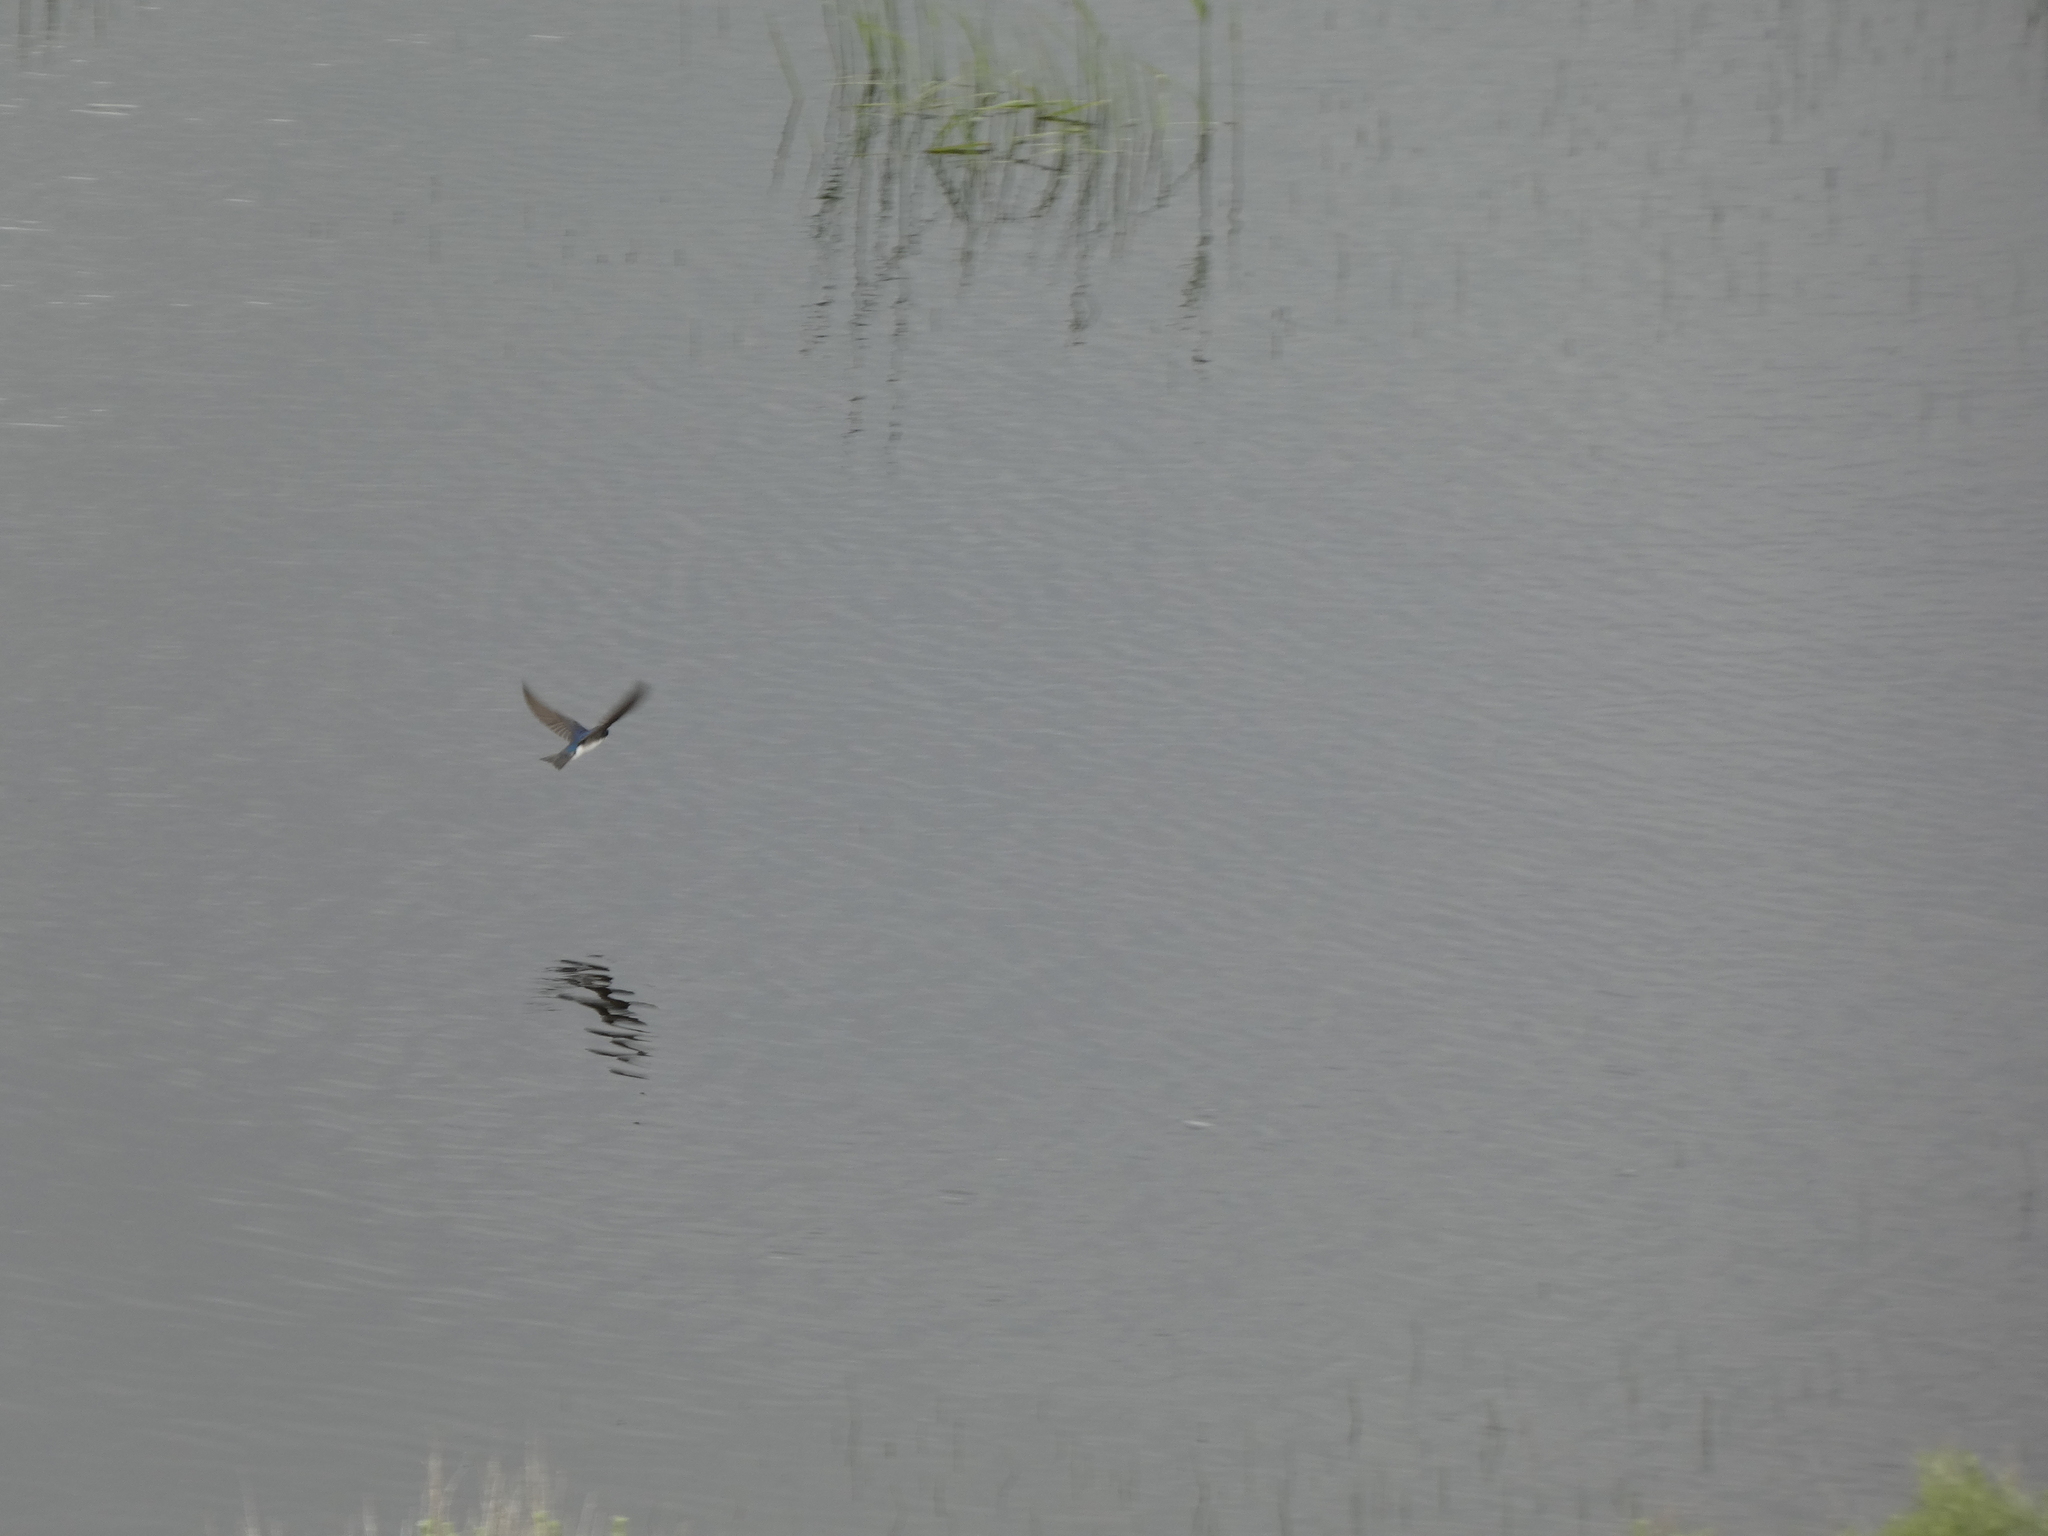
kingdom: Animalia
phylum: Chordata
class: Aves
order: Passeriformes
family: Hirundinidae
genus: Tachycineta
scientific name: Tachycineta bicolor
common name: Tree swallow
